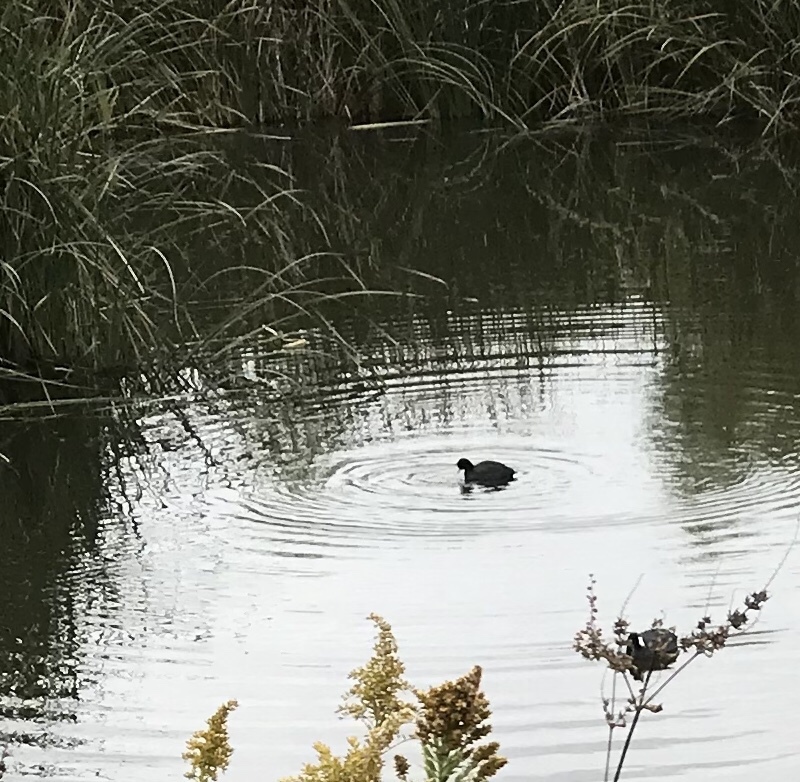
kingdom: Animalia
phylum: Chordata
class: Aves
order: Gruiformes
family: Rallidae
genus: Fulica
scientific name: Fulica americana
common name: American coot
